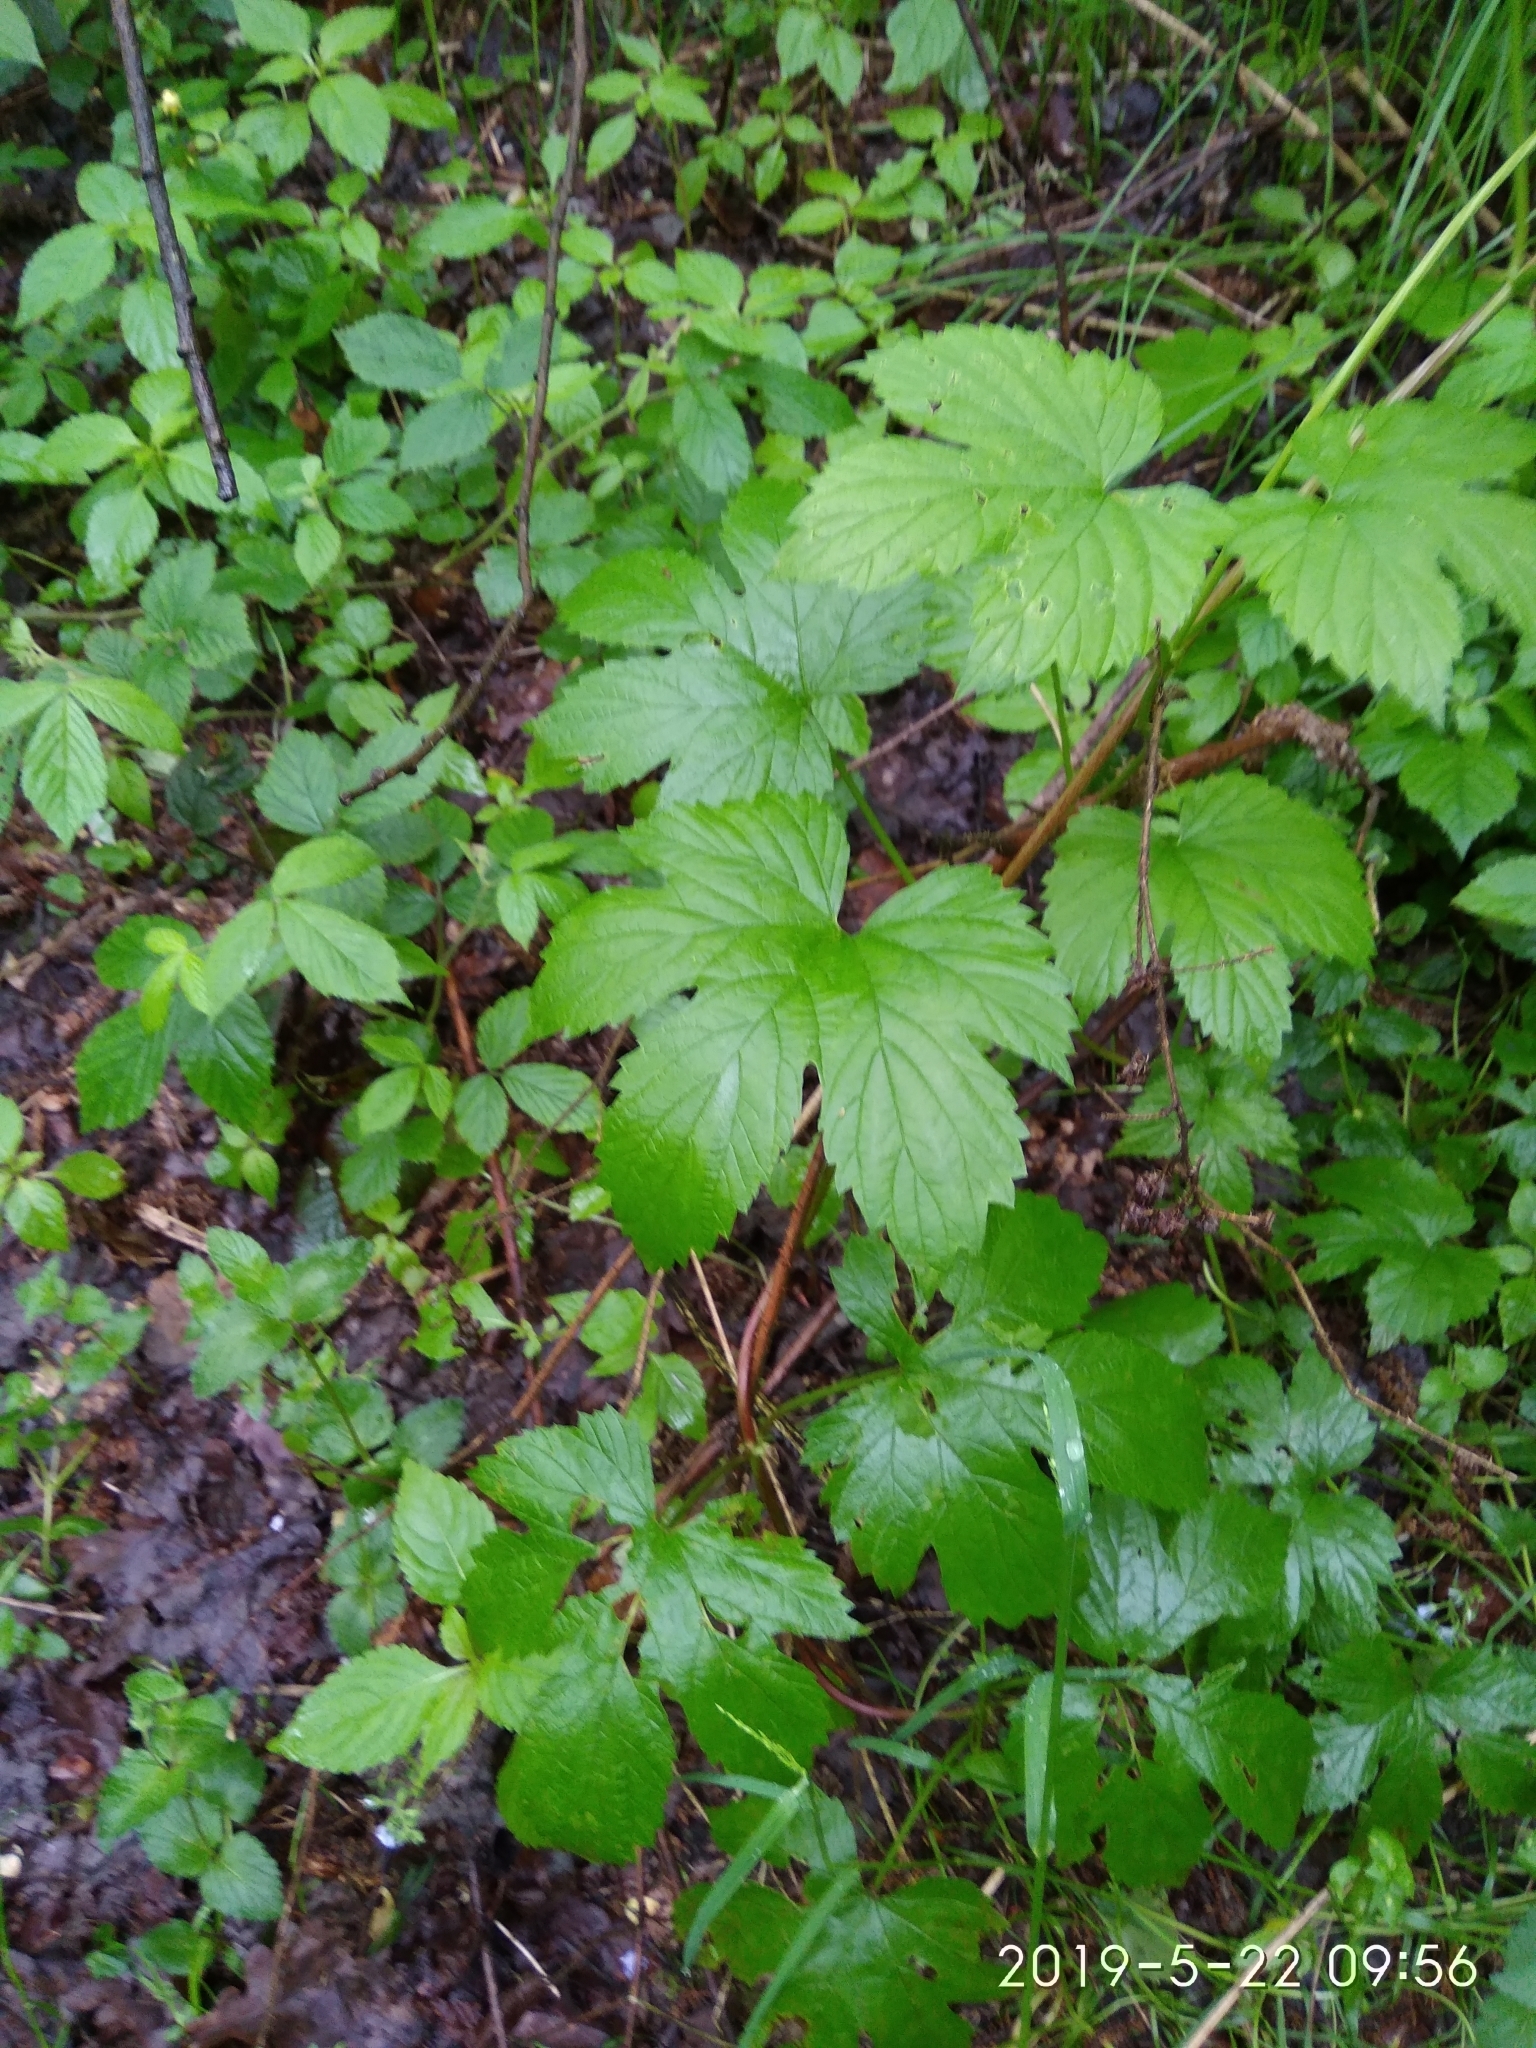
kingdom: Plantae
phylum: Tracheophyta
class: Magnoliopsida
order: Rosales
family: Cannabaceae
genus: Humulus
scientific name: Humulus lupulus
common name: Hop
